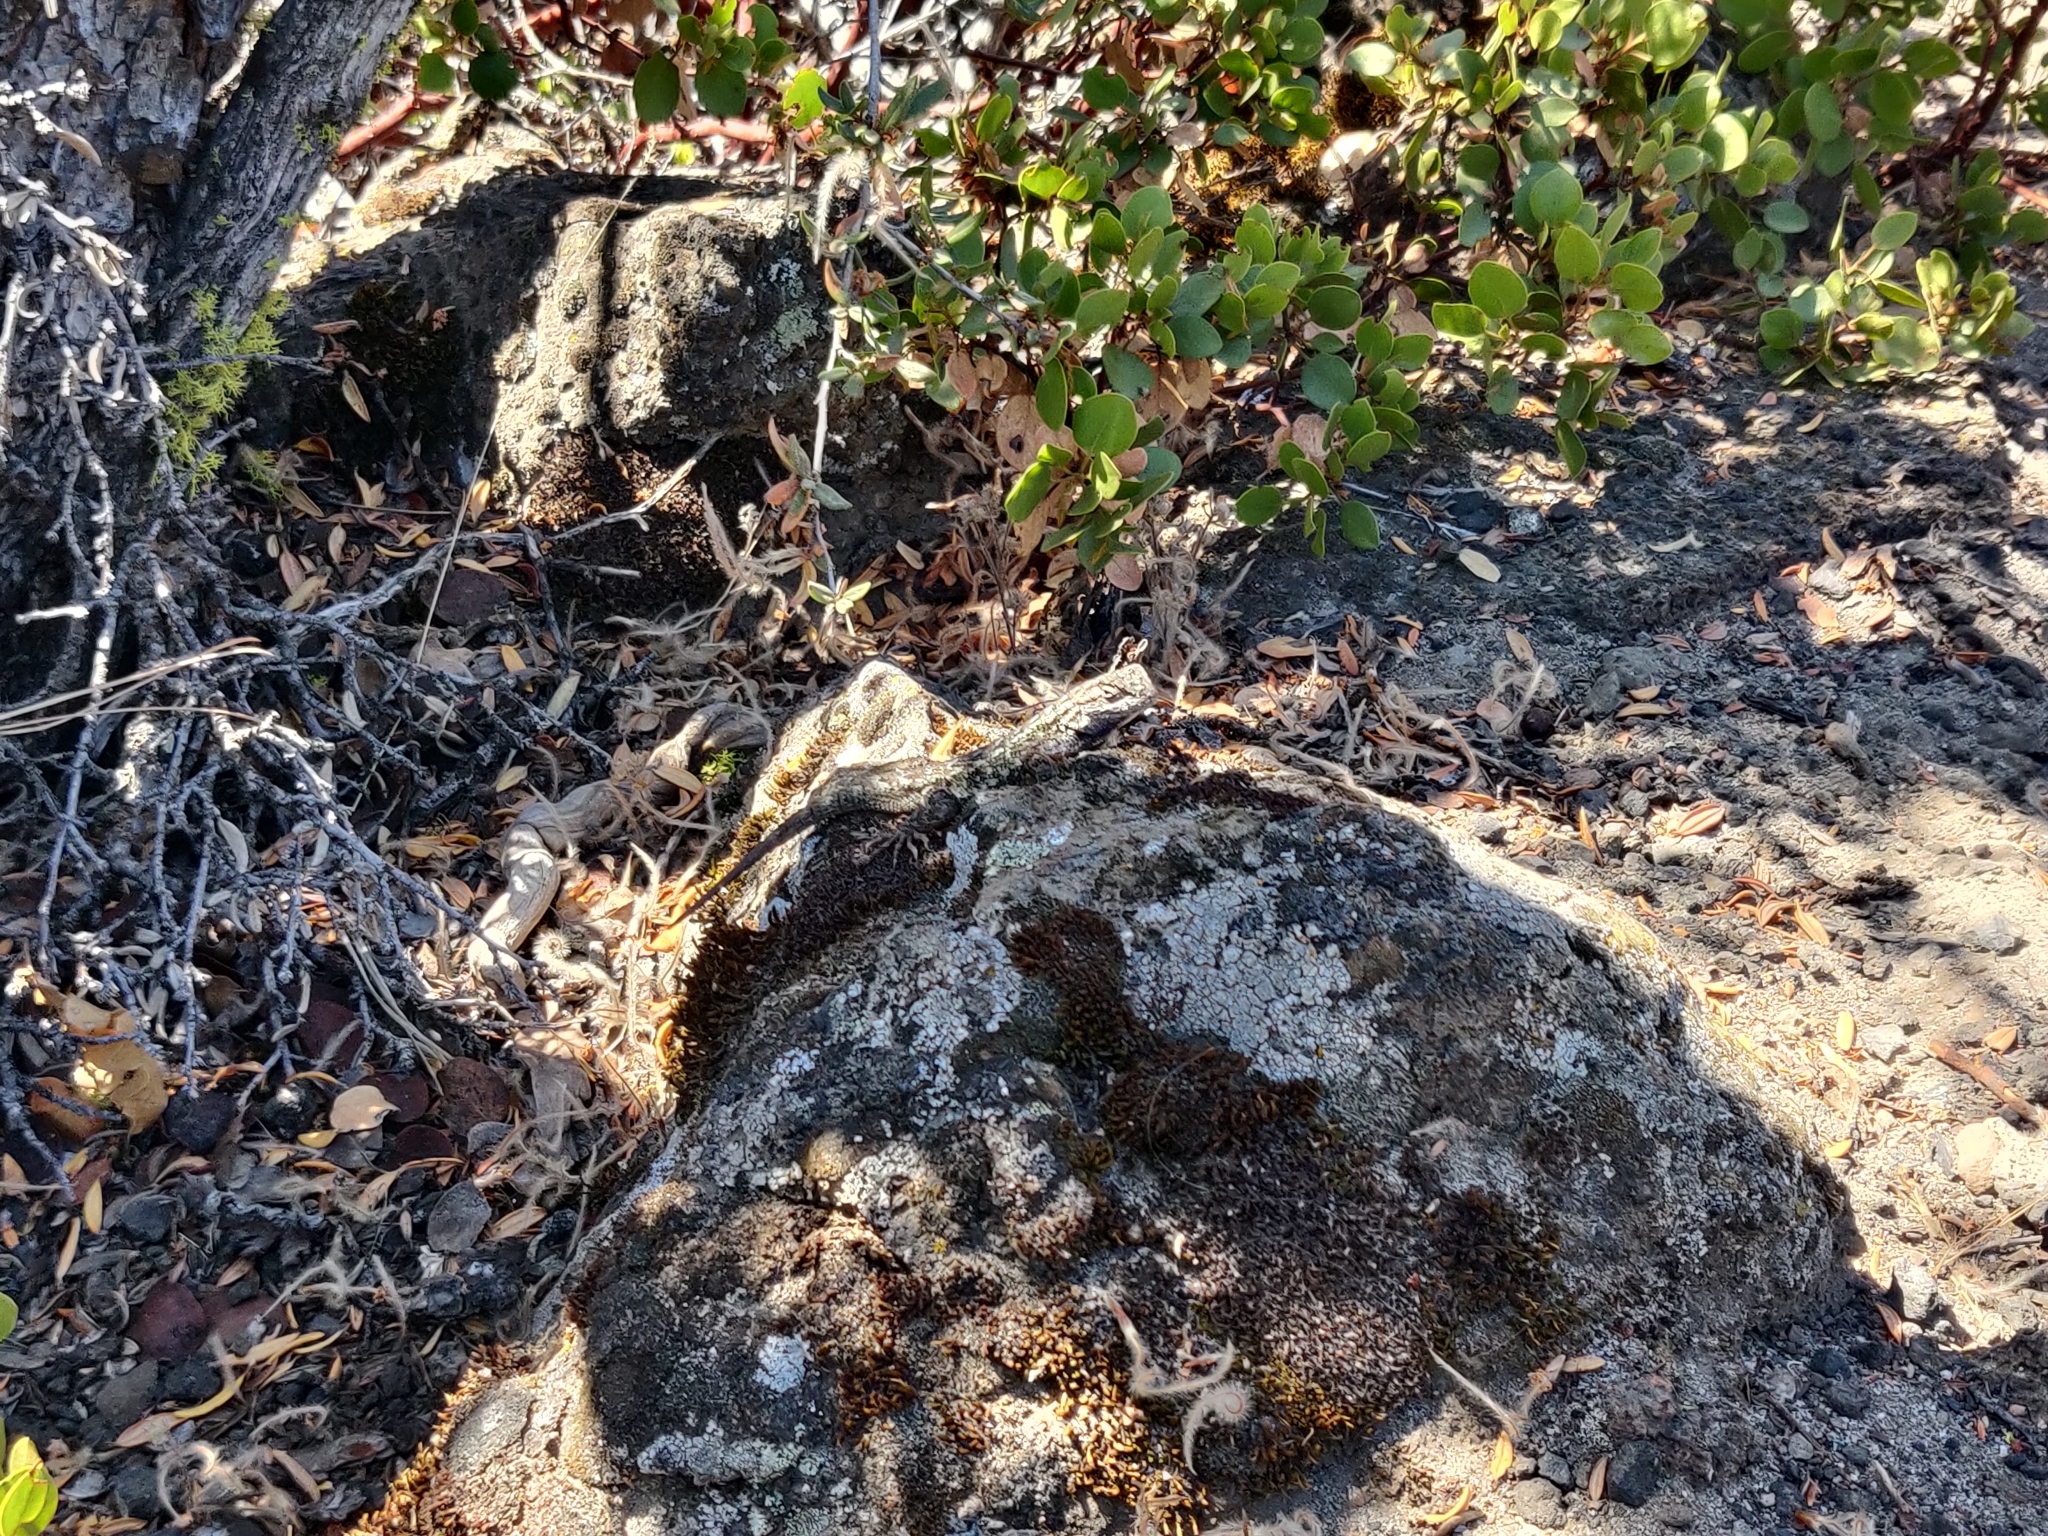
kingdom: Animalia
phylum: Chordata
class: Squamata
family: Phrynosomatidae
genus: Sceloporus
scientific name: Sceloporus occidentalis
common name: Western fence lizard
